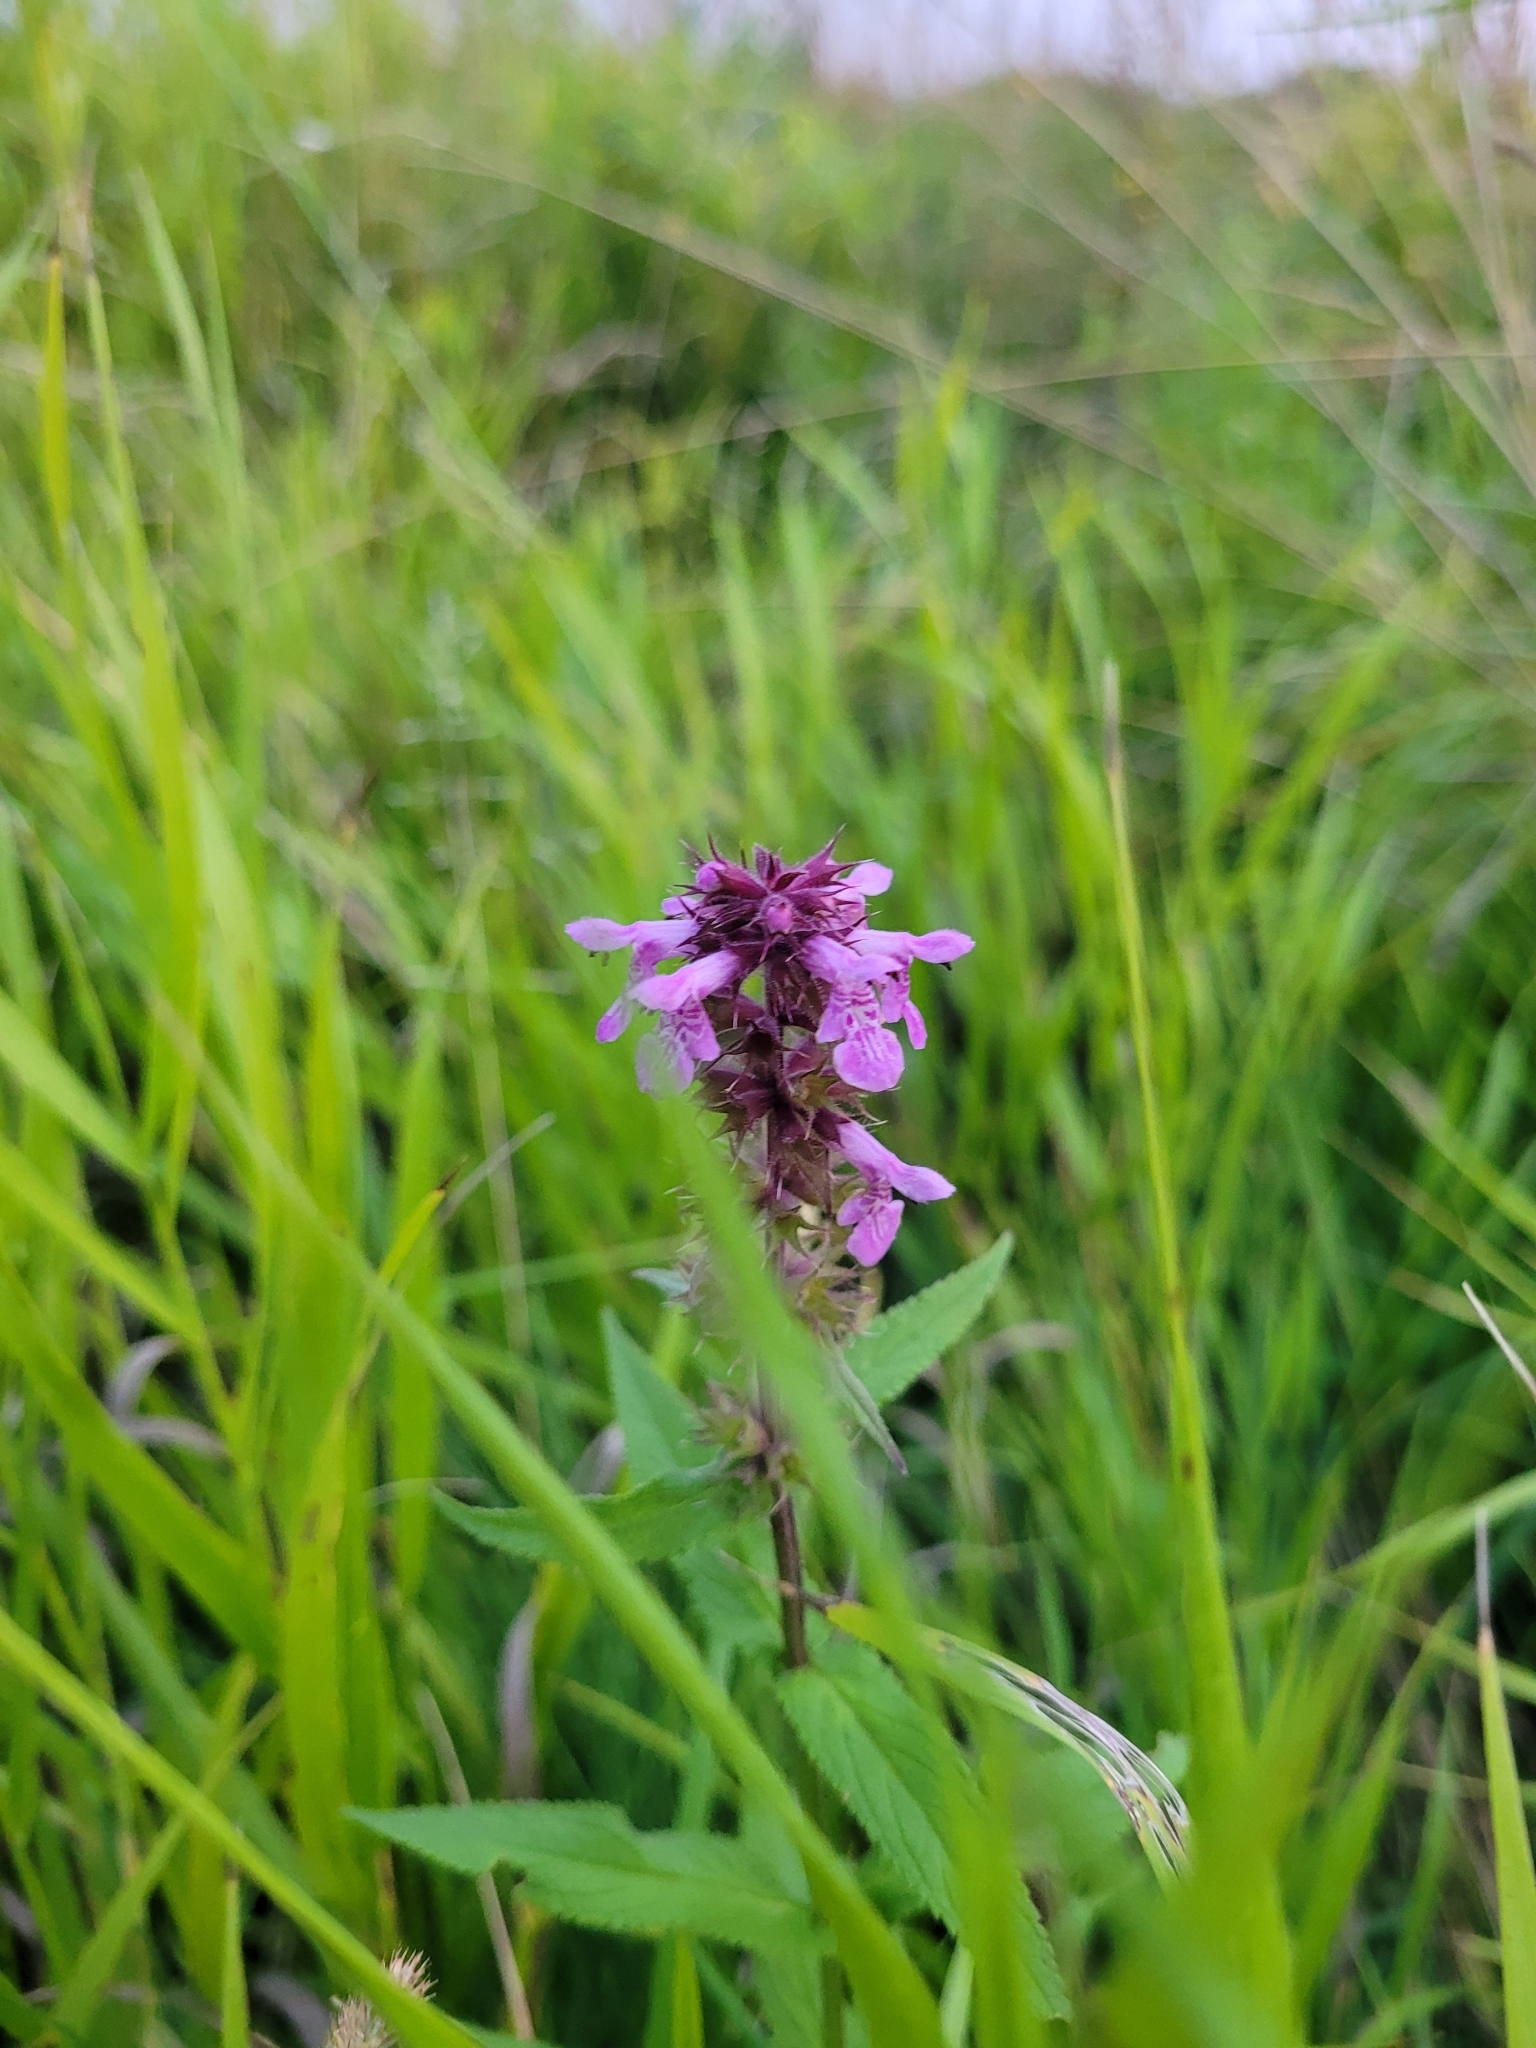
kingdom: Plantae
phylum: Tracheophyta
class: Magnoliopsida
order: Lamiales
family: Lamiaceae
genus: Stachys
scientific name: Stachys palustris
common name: Marsh woundwort
